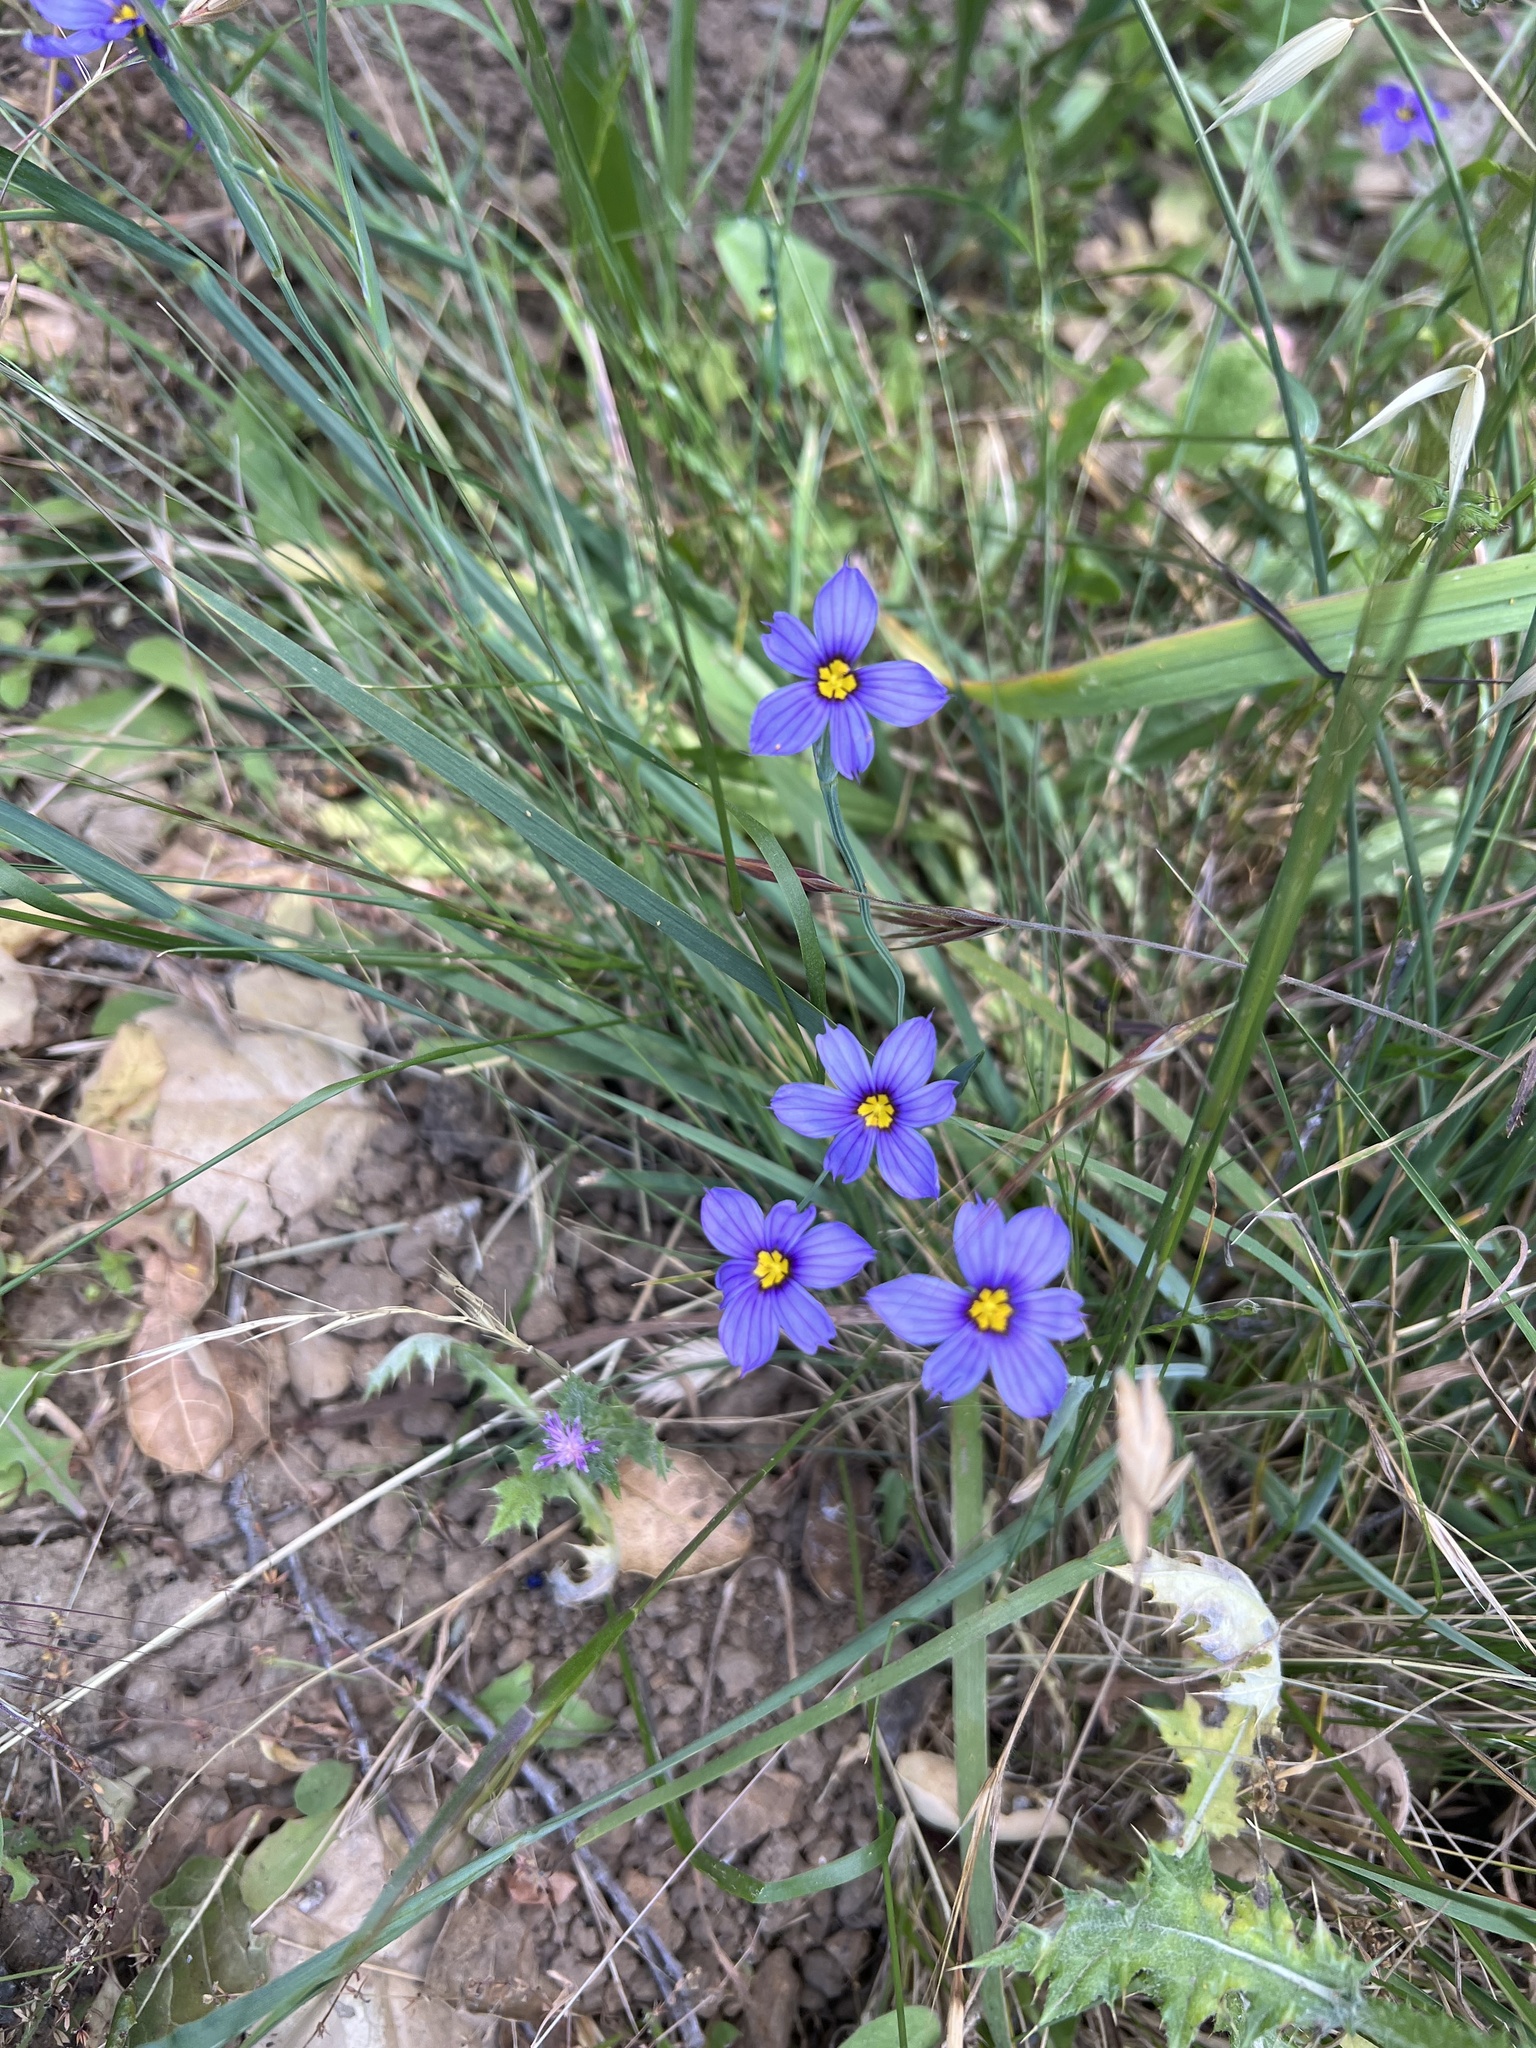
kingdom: Plantae
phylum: Tracheophyta
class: Liliopsida
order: Asparagales
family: Iridaceae
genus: Sisyrinchium
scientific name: Sisyrinchium bellum
